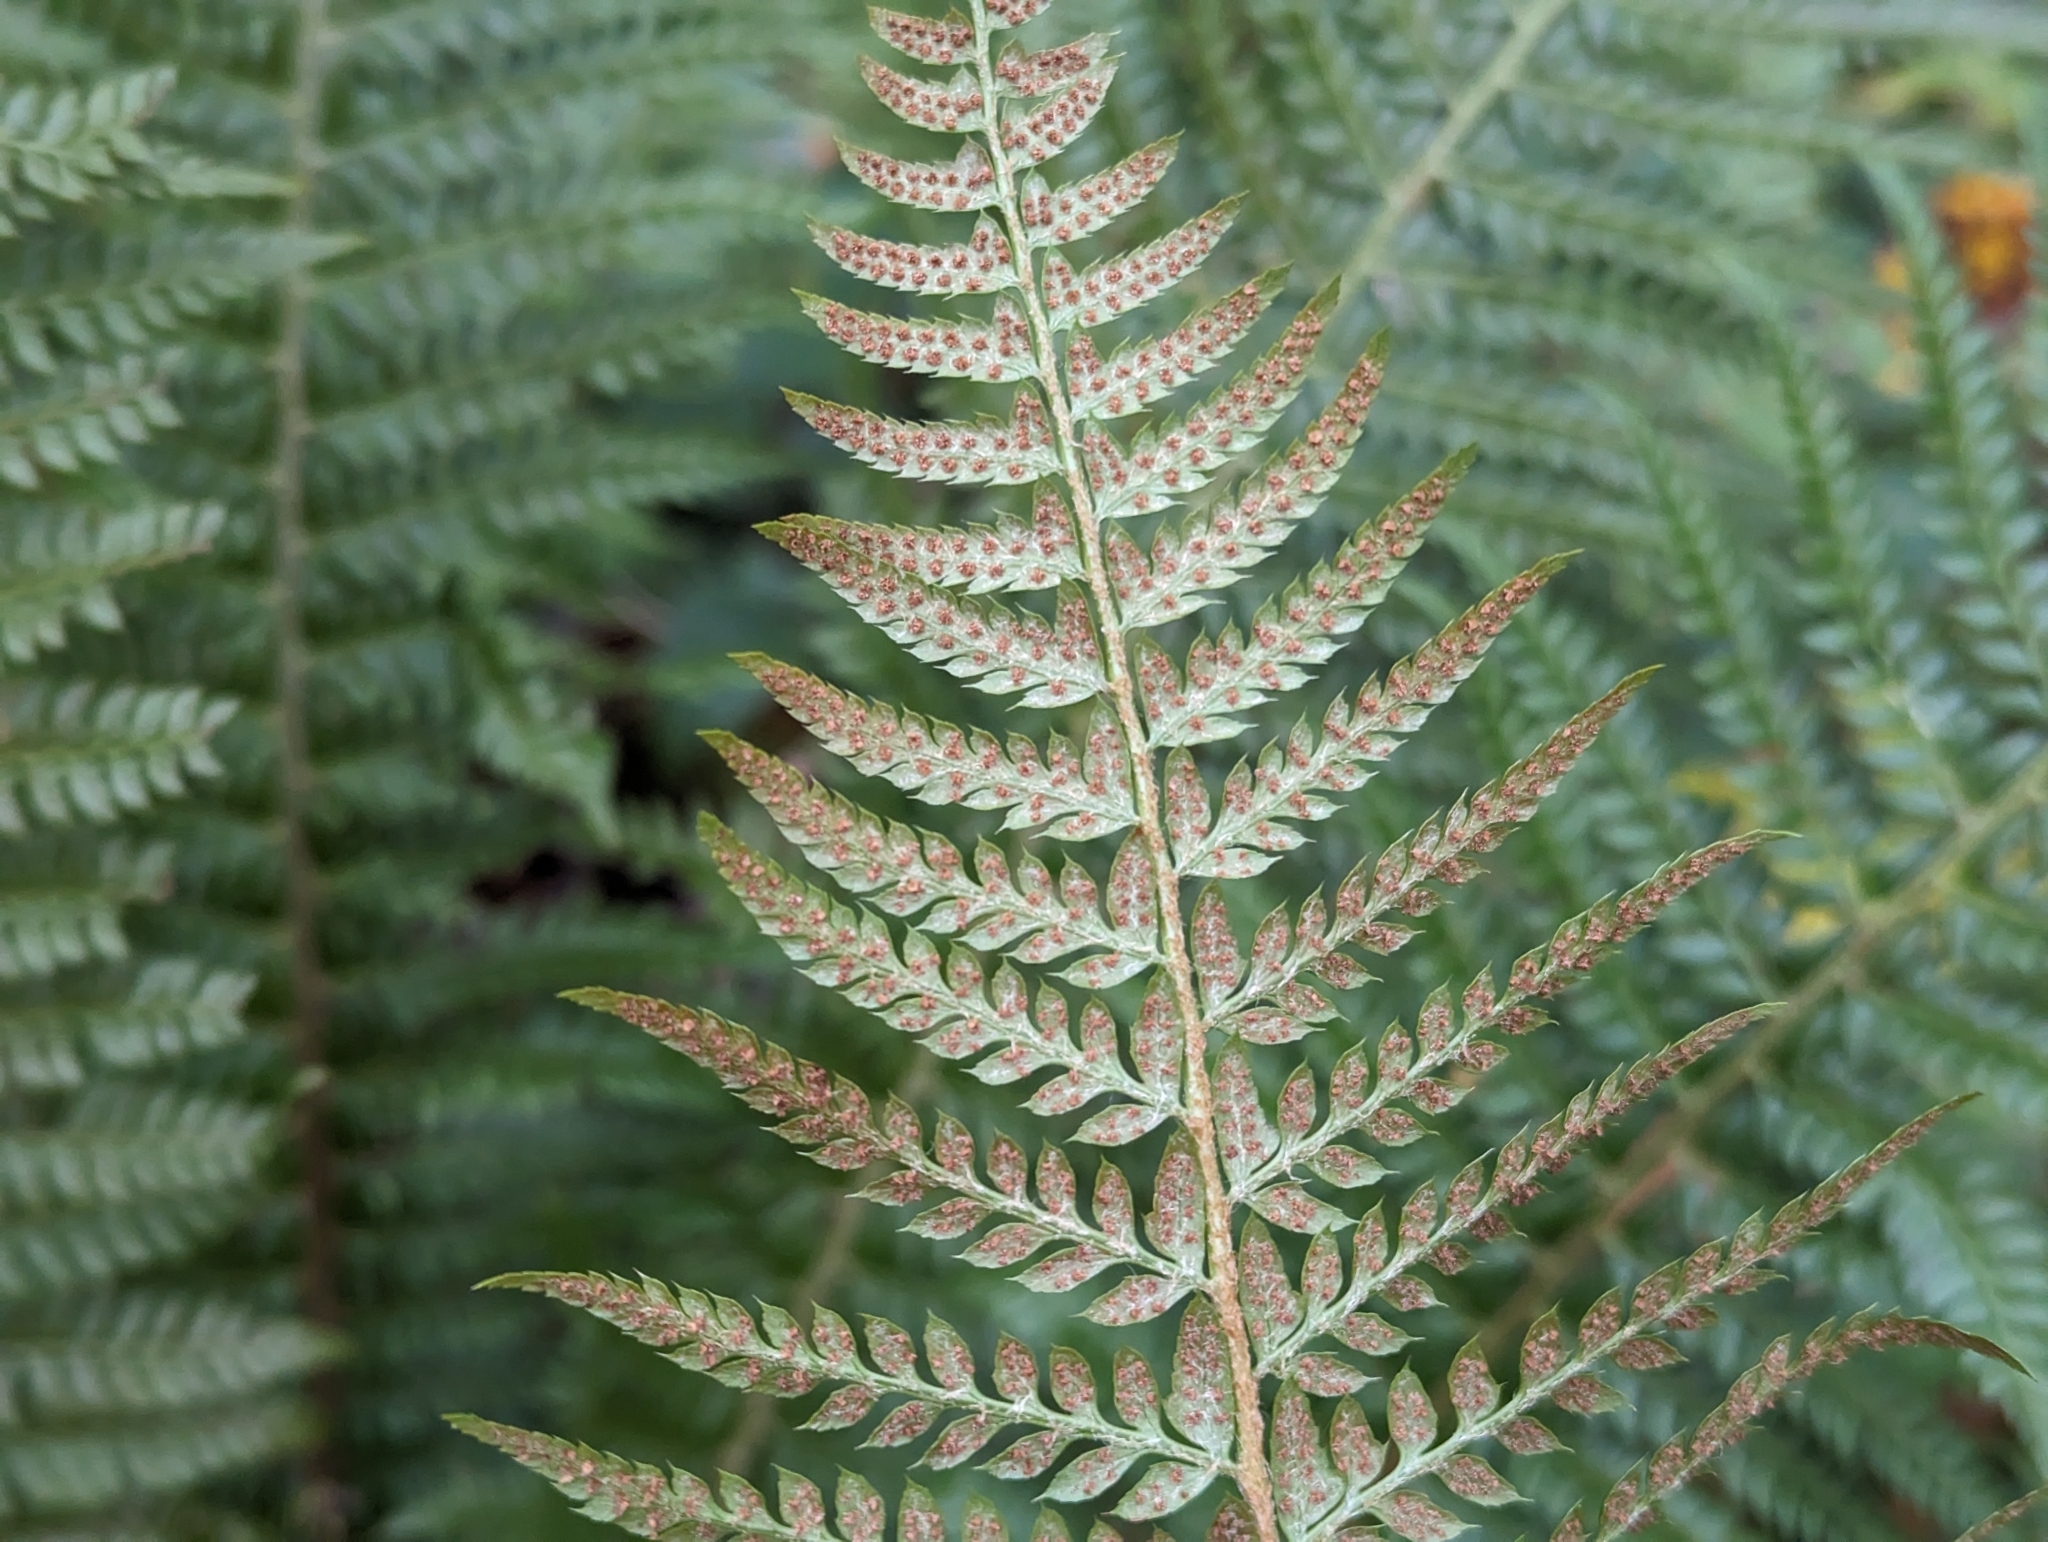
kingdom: Plantae
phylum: Tracheophyta
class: Polypodiopsida
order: Polypodiales
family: Dryopteridaceae
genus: Polystichum
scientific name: Polystichum aculeatum
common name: Hard shield-fern
